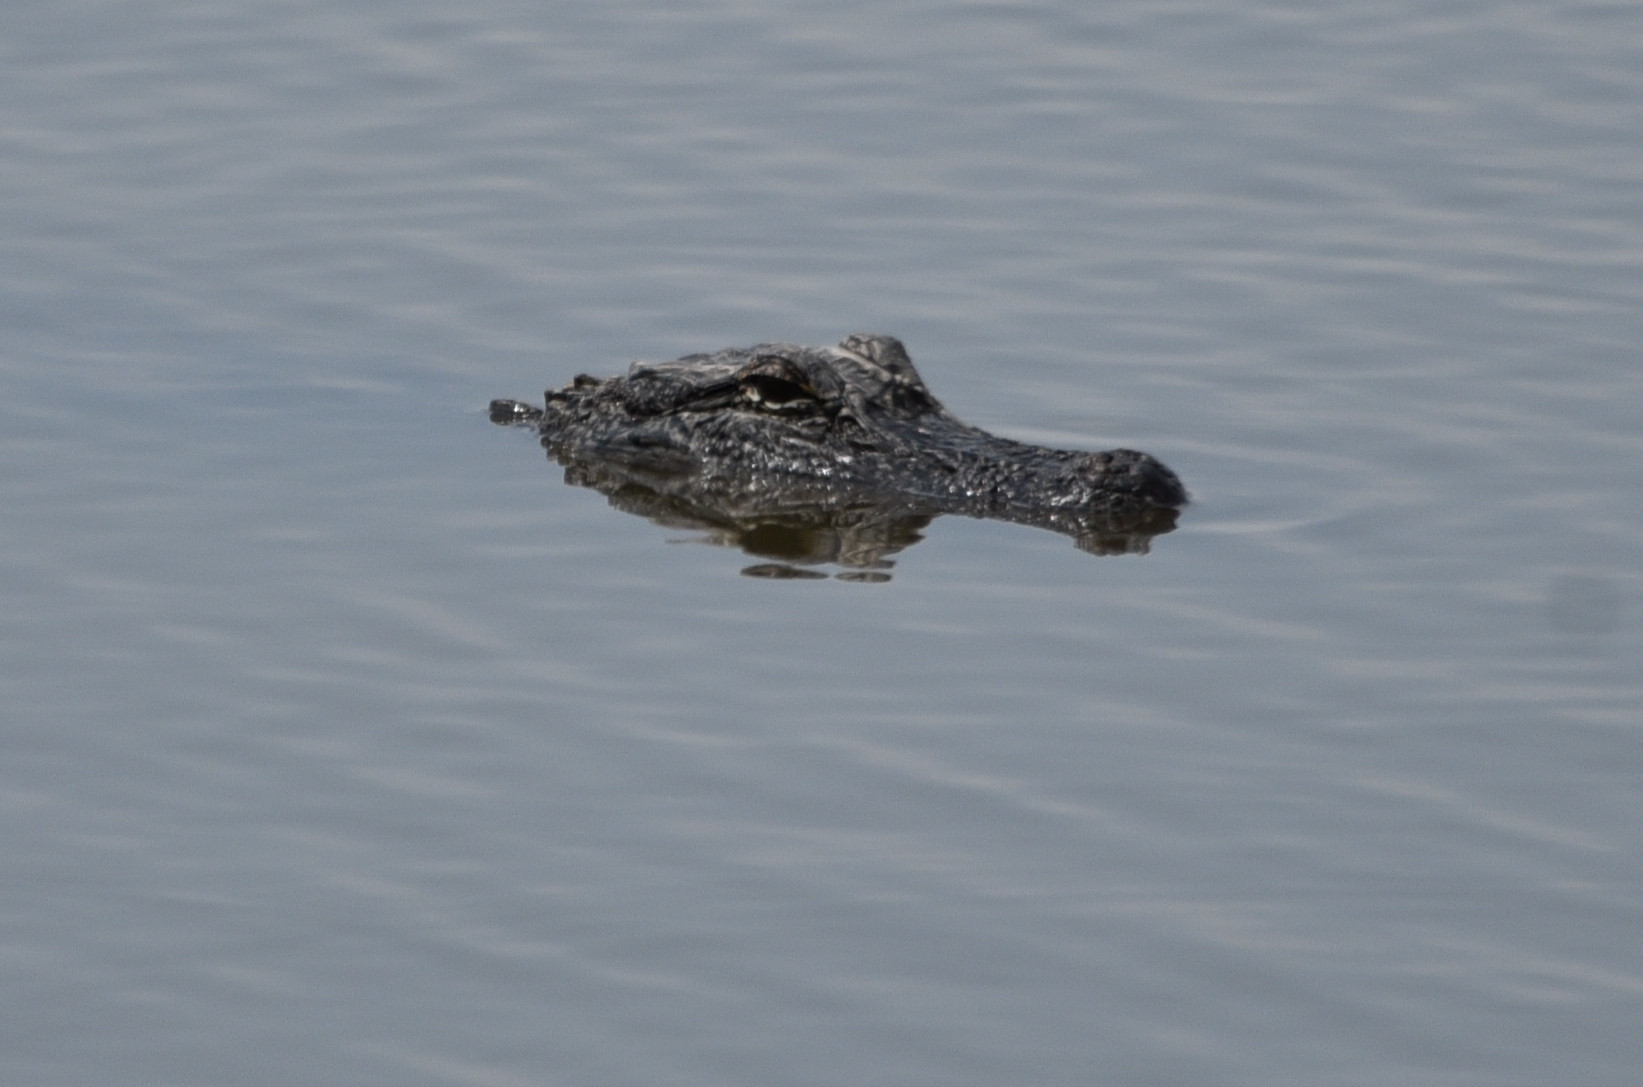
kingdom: Animalia
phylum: Chordata
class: Crocodylia
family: Alligatoridae
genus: Alligator
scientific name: Alligator mississippiensis
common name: American alligator
